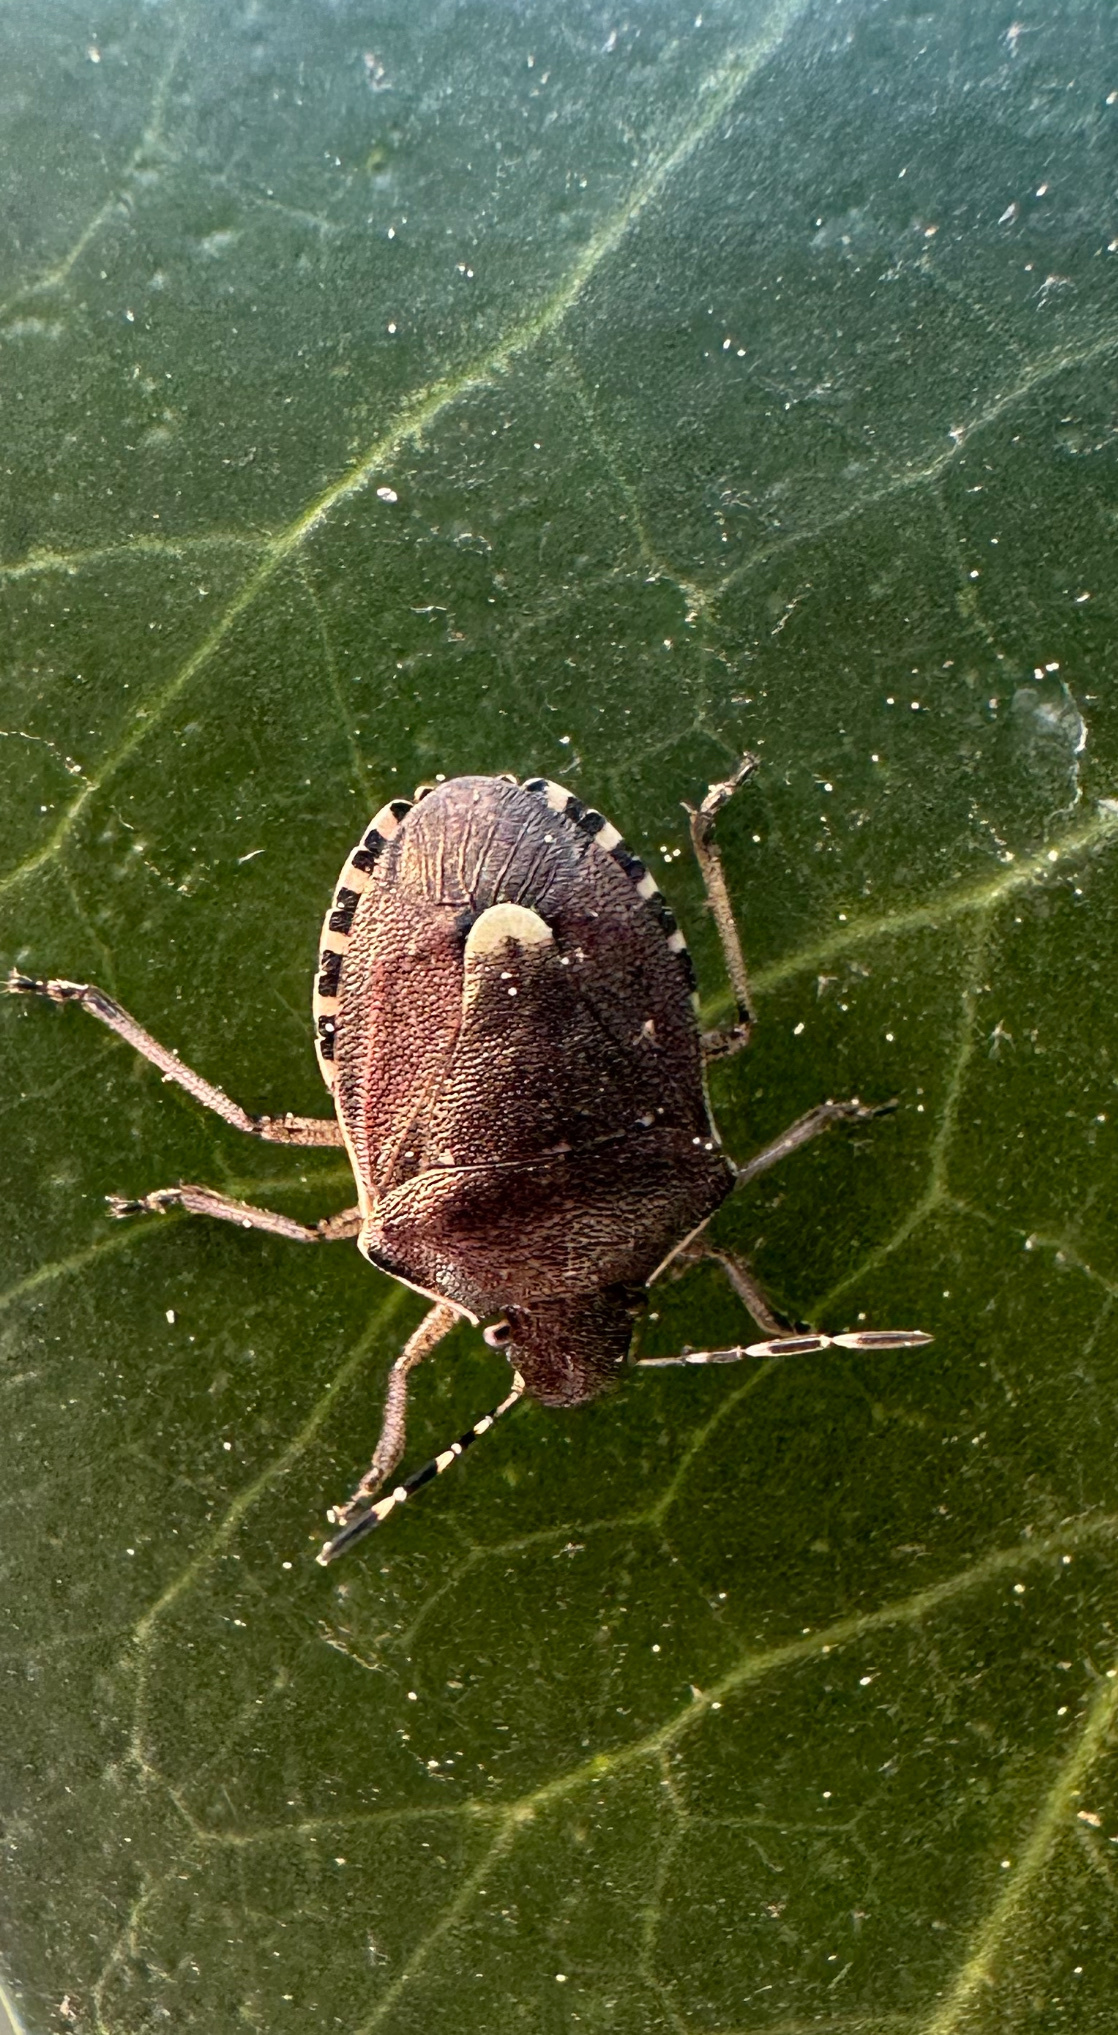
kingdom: Animalia
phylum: Arthropoda
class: Insecta
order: Hemiptera
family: Pentatomidae
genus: Holcostethus
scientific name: Holcostethus sphacelatus
